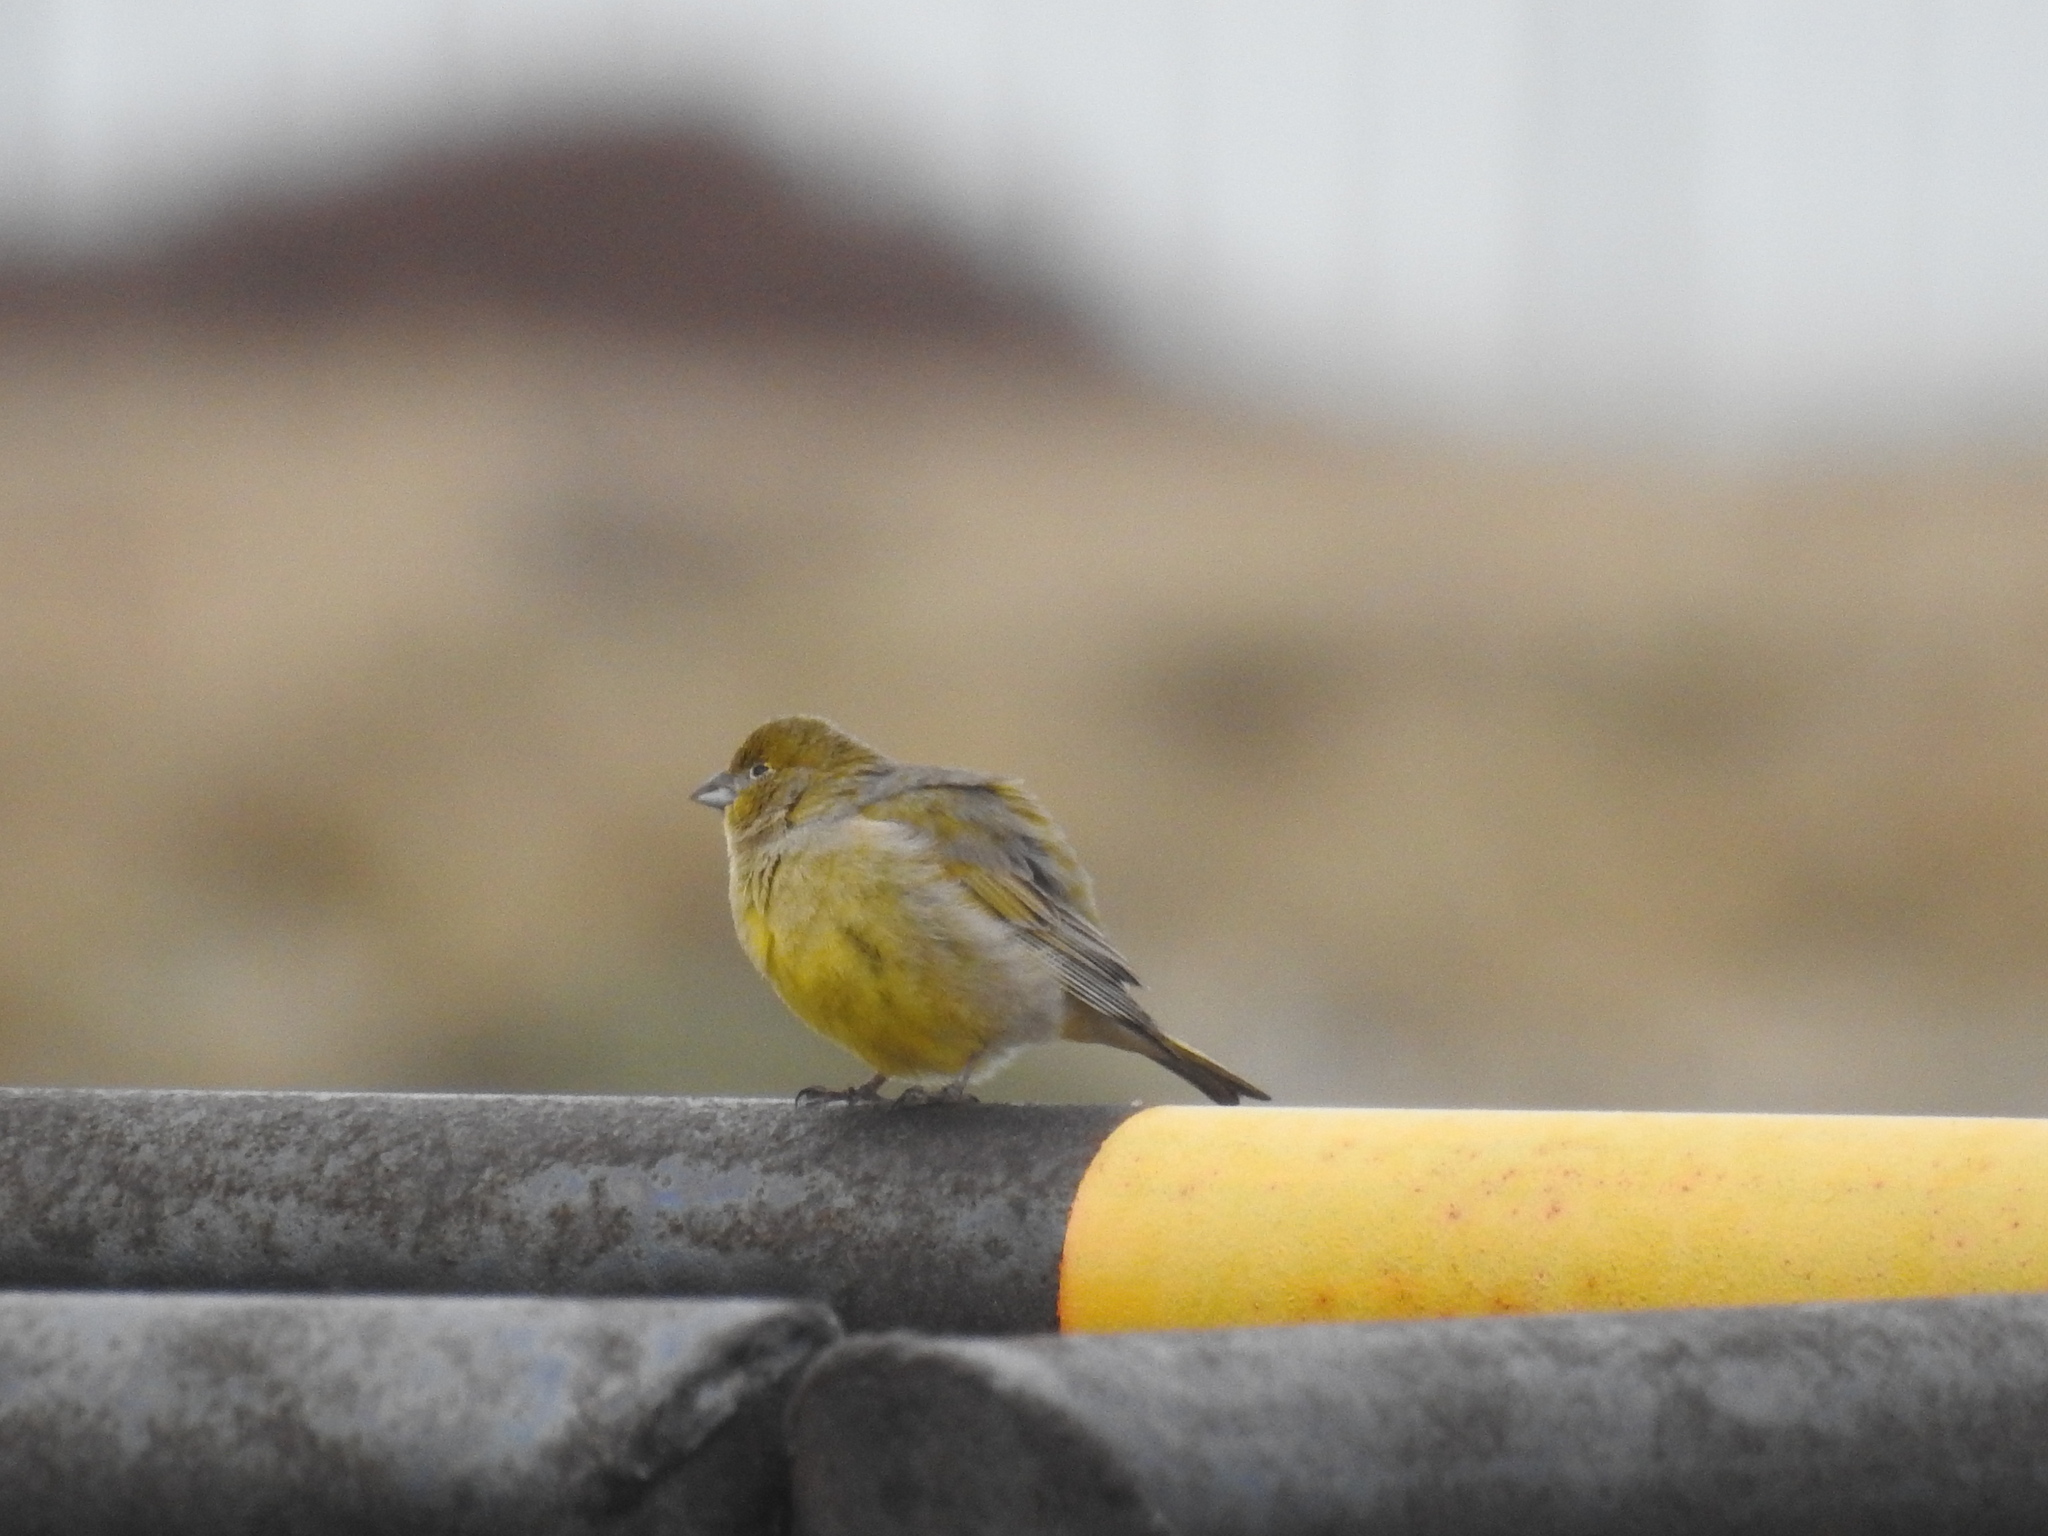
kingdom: Animalia
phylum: Chordata
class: Aves
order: Passeriformes
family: Thraupidae
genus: Sicalis
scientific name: Sicalis lebruni
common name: Patagonian yellow finch
